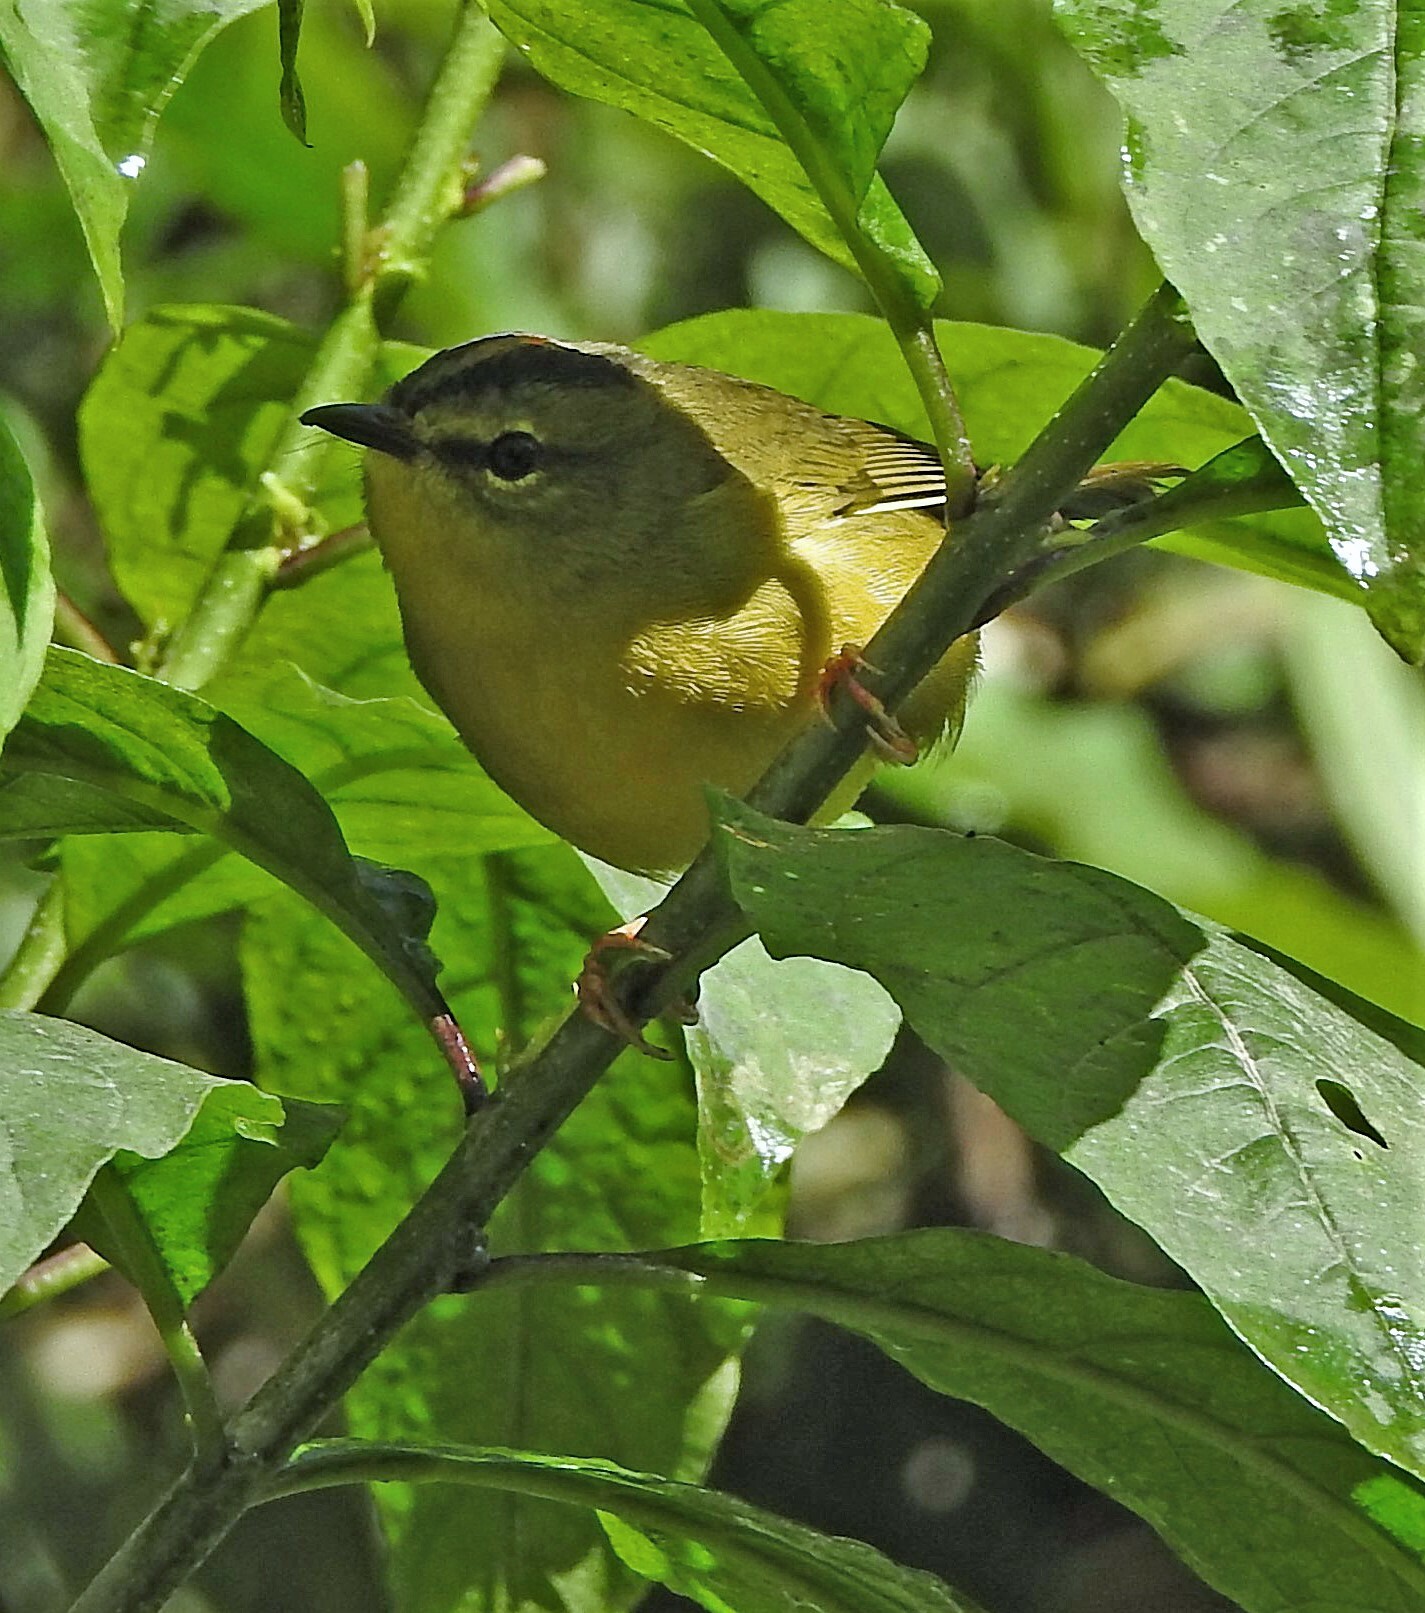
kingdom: Animalia
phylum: Chordata
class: Aves
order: Passeriformes
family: Parulidae
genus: Myiothlypis
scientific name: Myiothlypis bivittata
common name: Two-banded warbler
